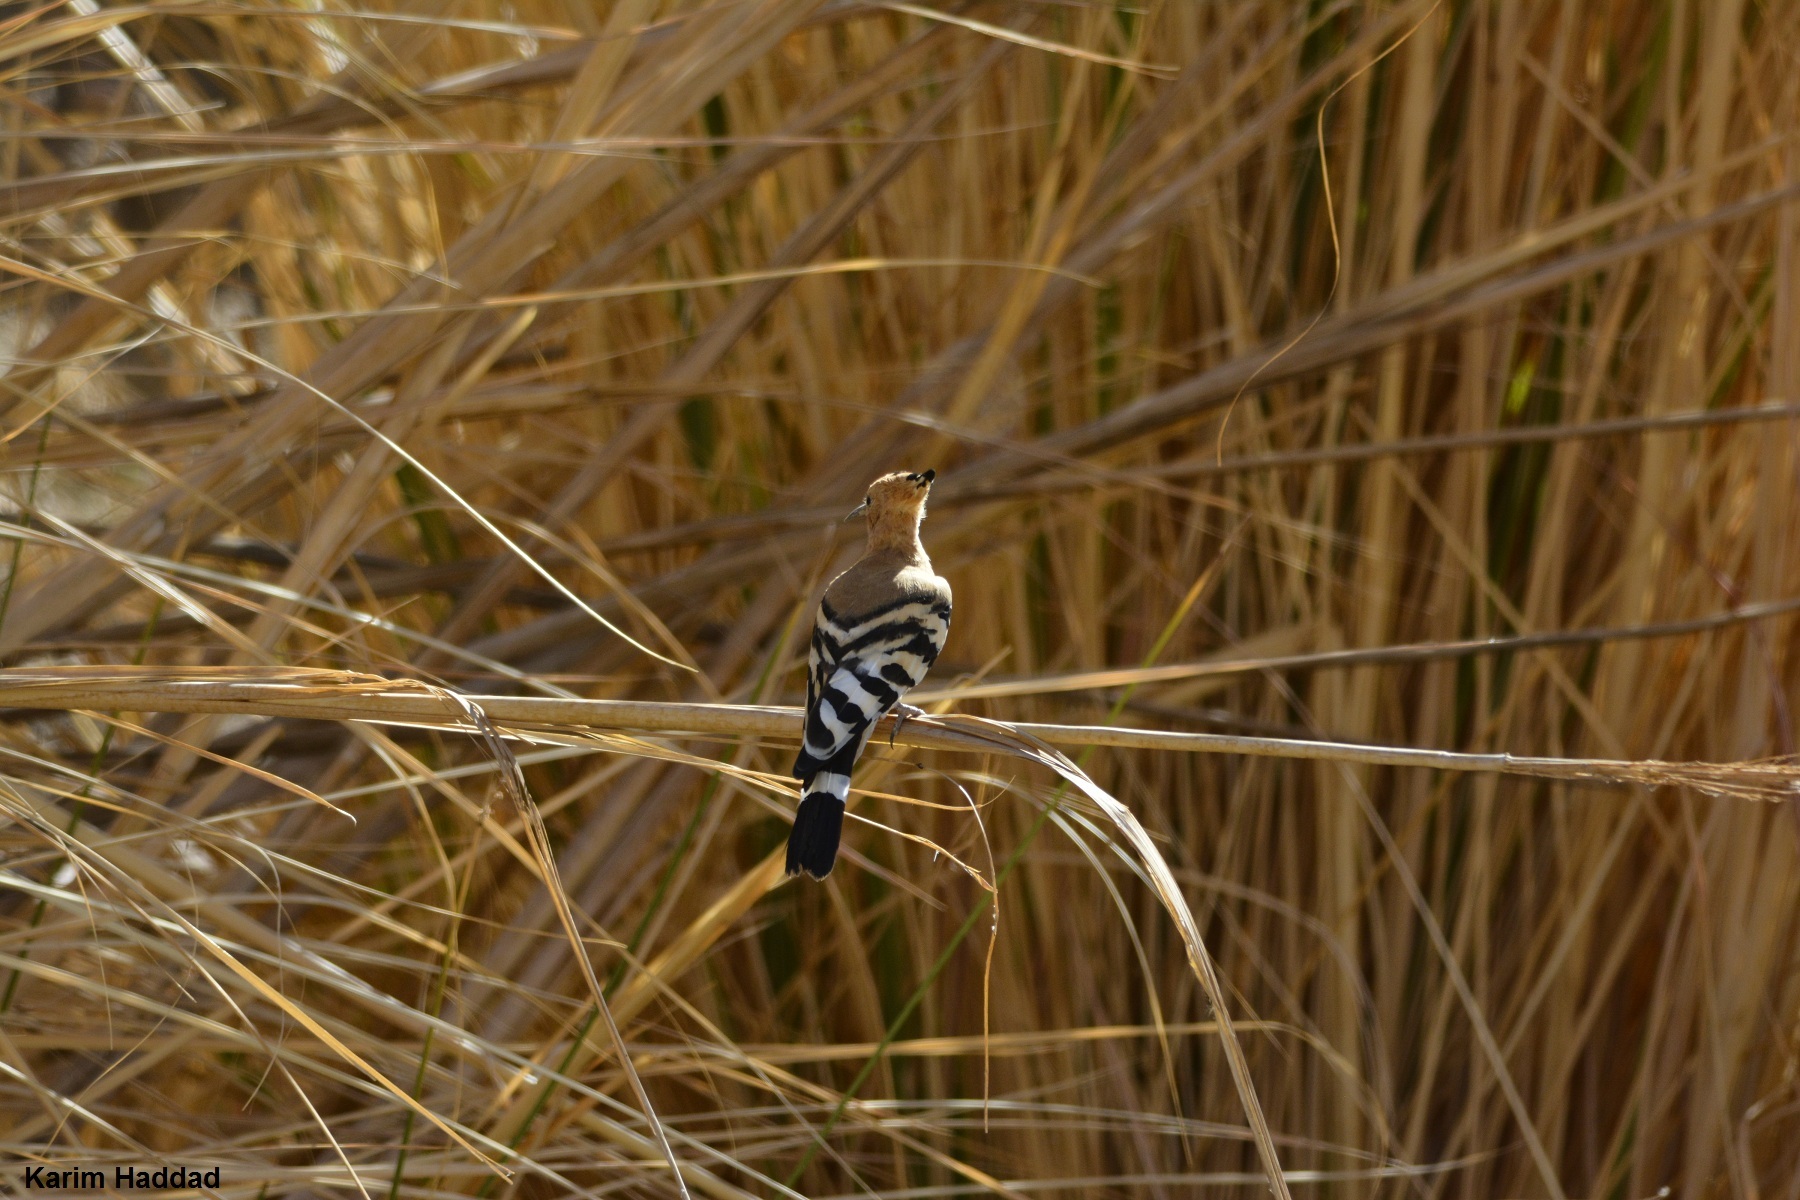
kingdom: Animalia
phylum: Chordata
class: Aves
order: Bucerotiformes
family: Upupidae
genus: Upupa
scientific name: Upupa epops
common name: Eurasian hoopoe
